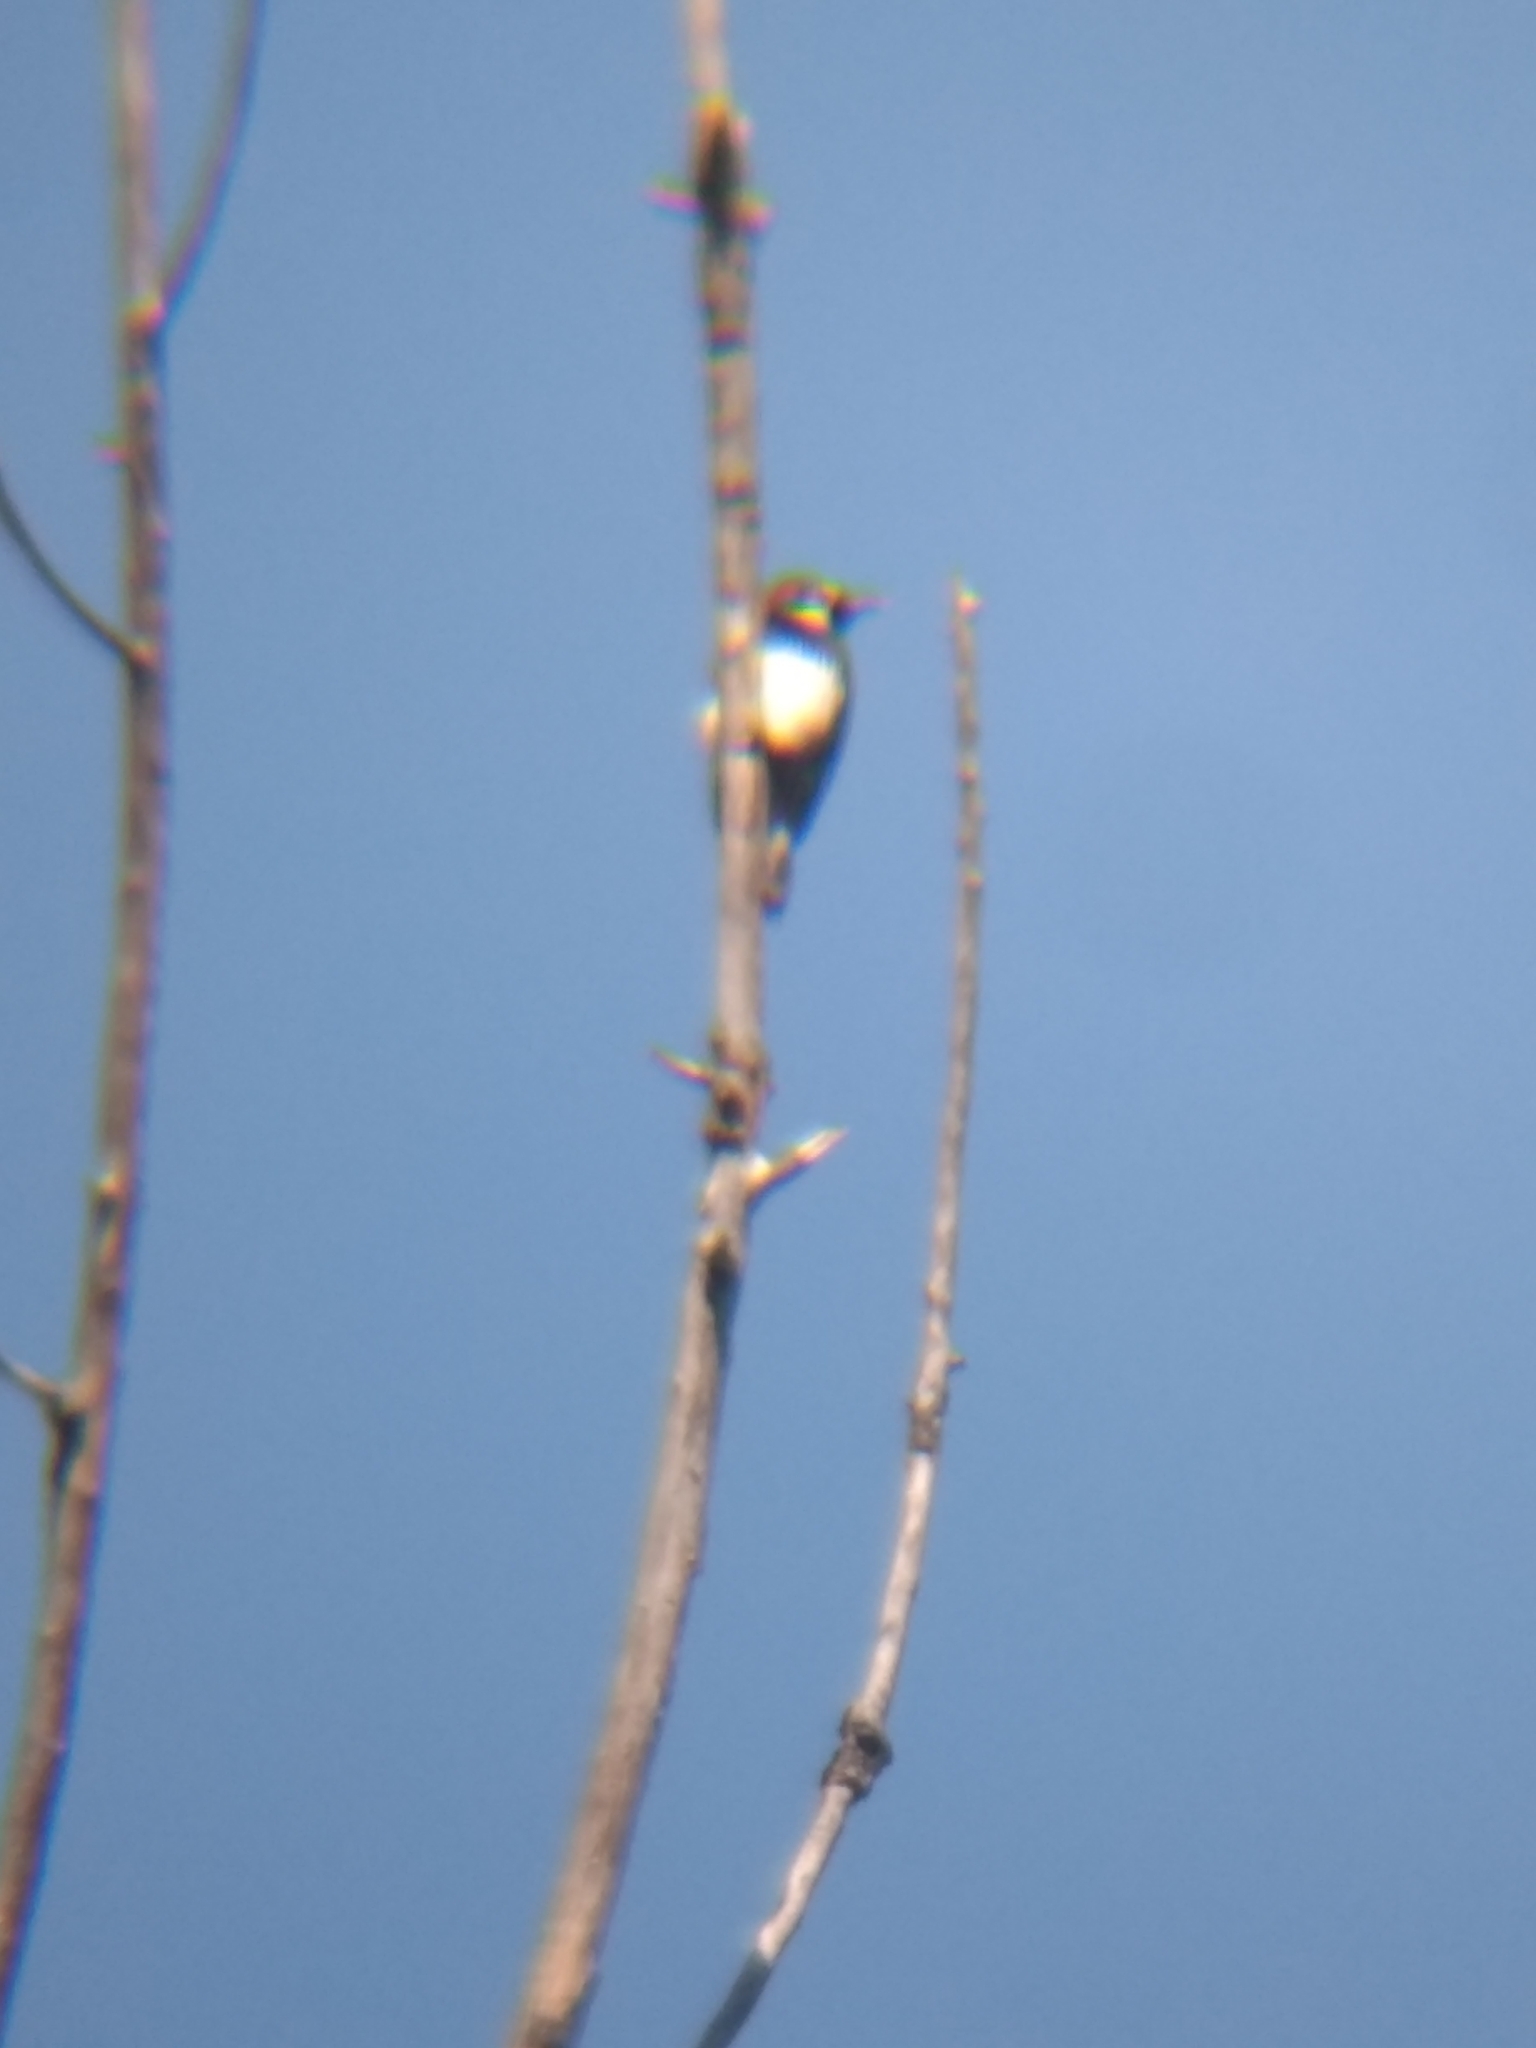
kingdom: Animalia
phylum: Chordata
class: Aves
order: Piciformes
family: Picidae
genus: Melanerpes
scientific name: Melanerpes formicivorus
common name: Acorn woodpecker
